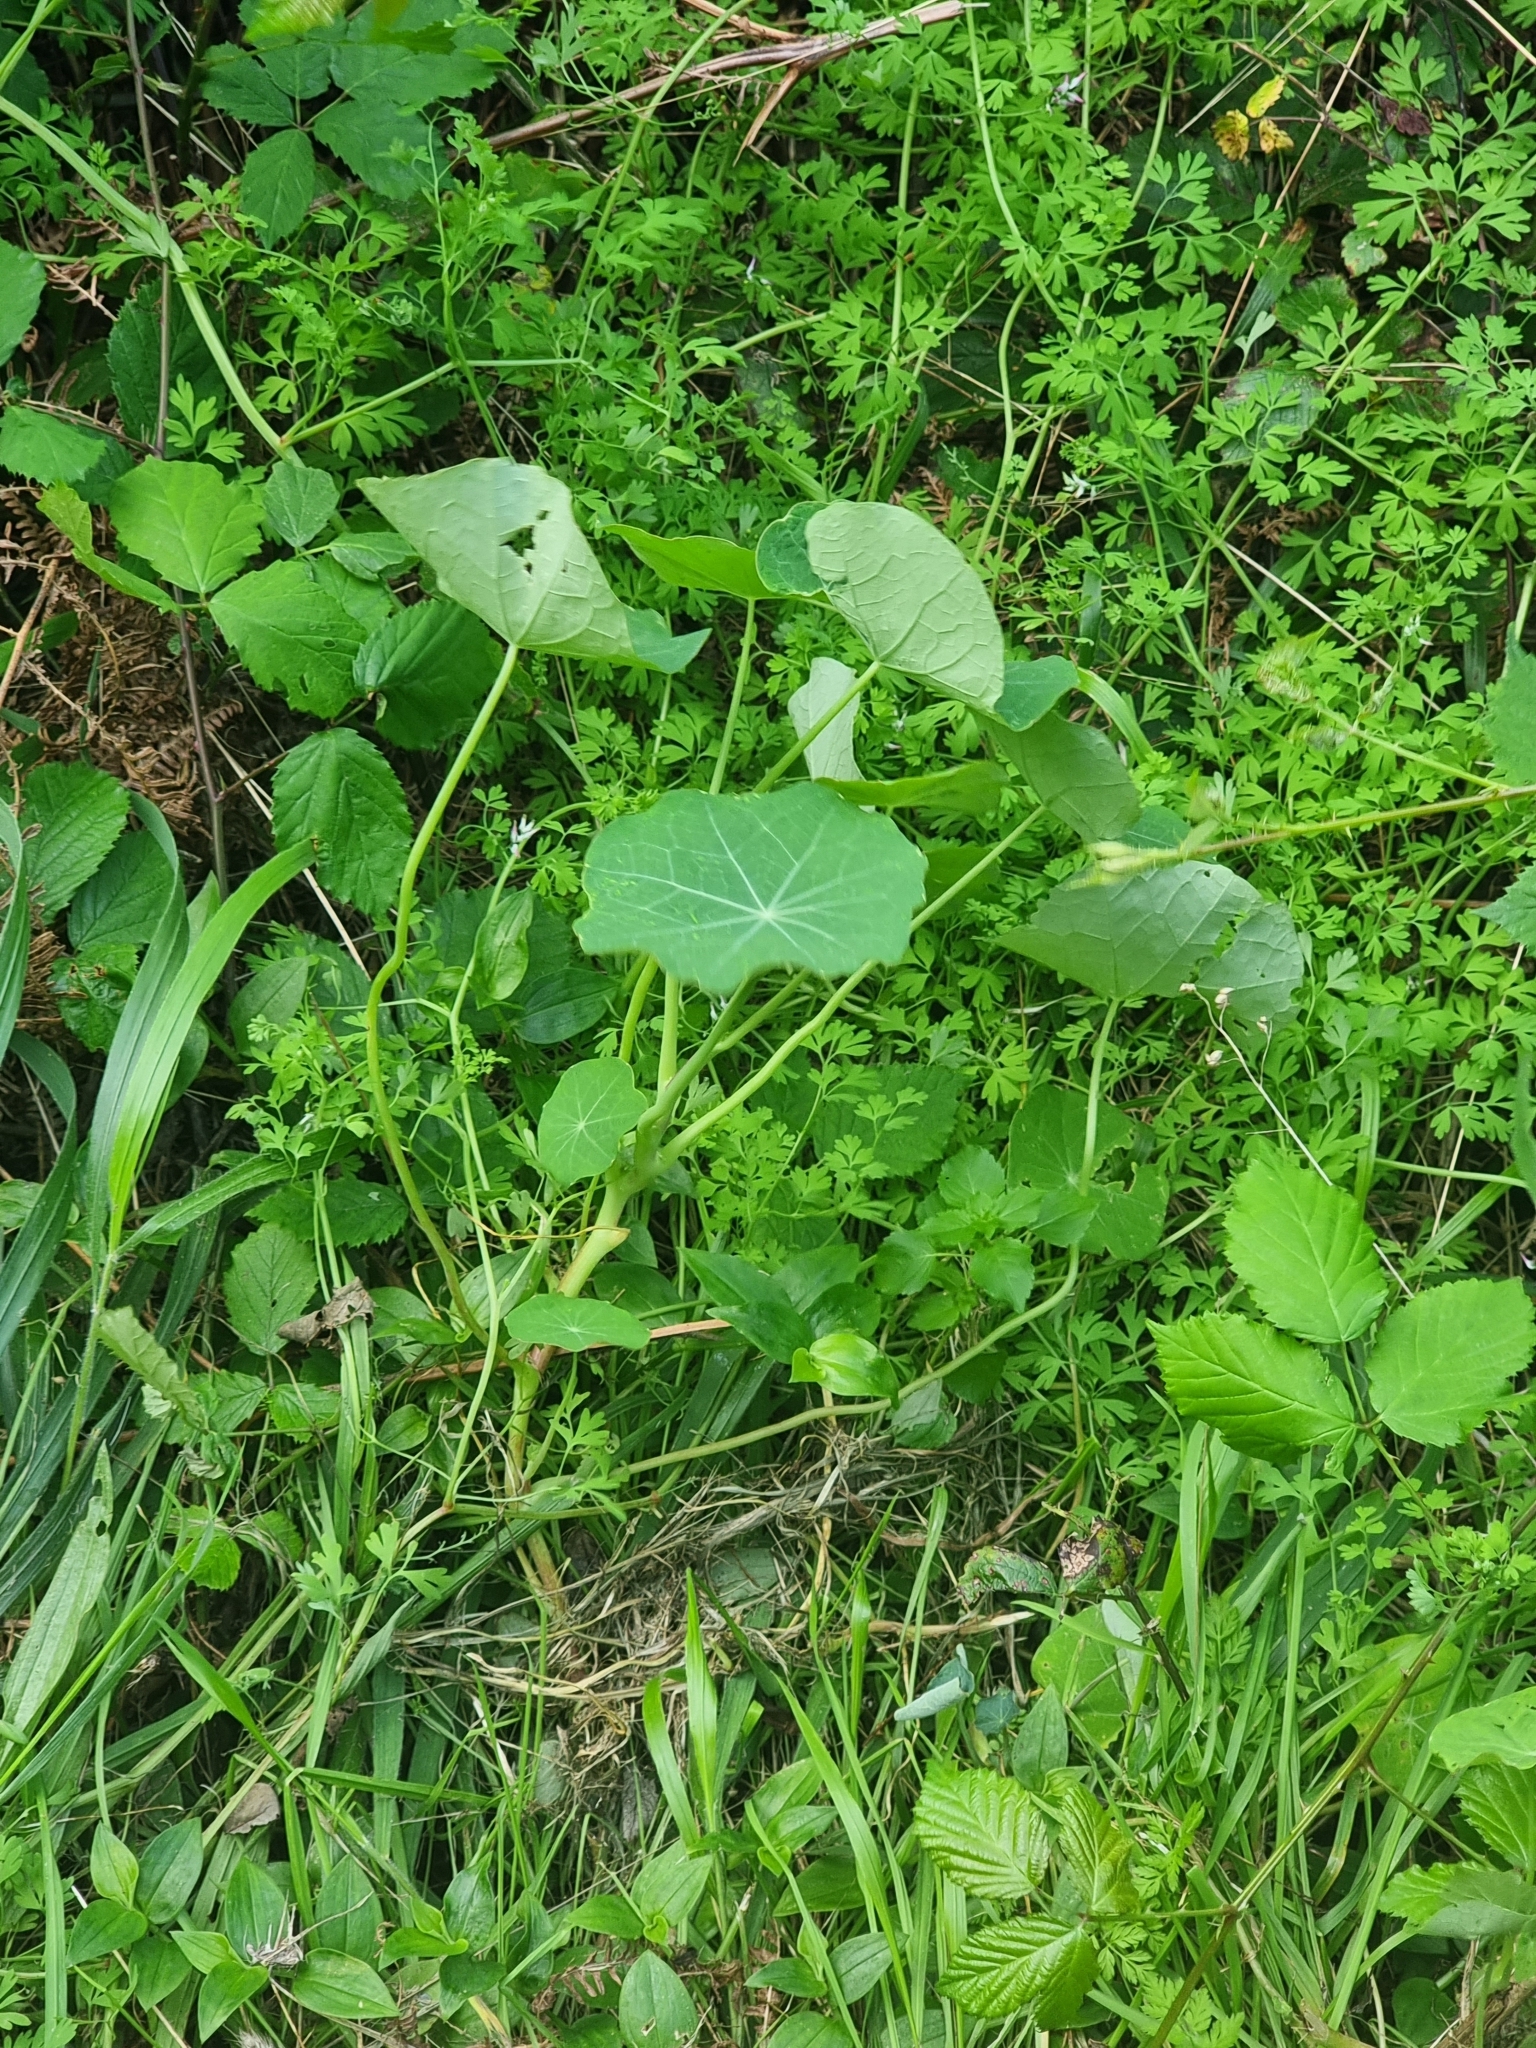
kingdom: Plantae
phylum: Tracheophyta
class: Magnoliopsida
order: Brassicales
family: Tropaeolaceae
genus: Tropaeolum
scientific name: Tropaeolum majus
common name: Nasturtium
